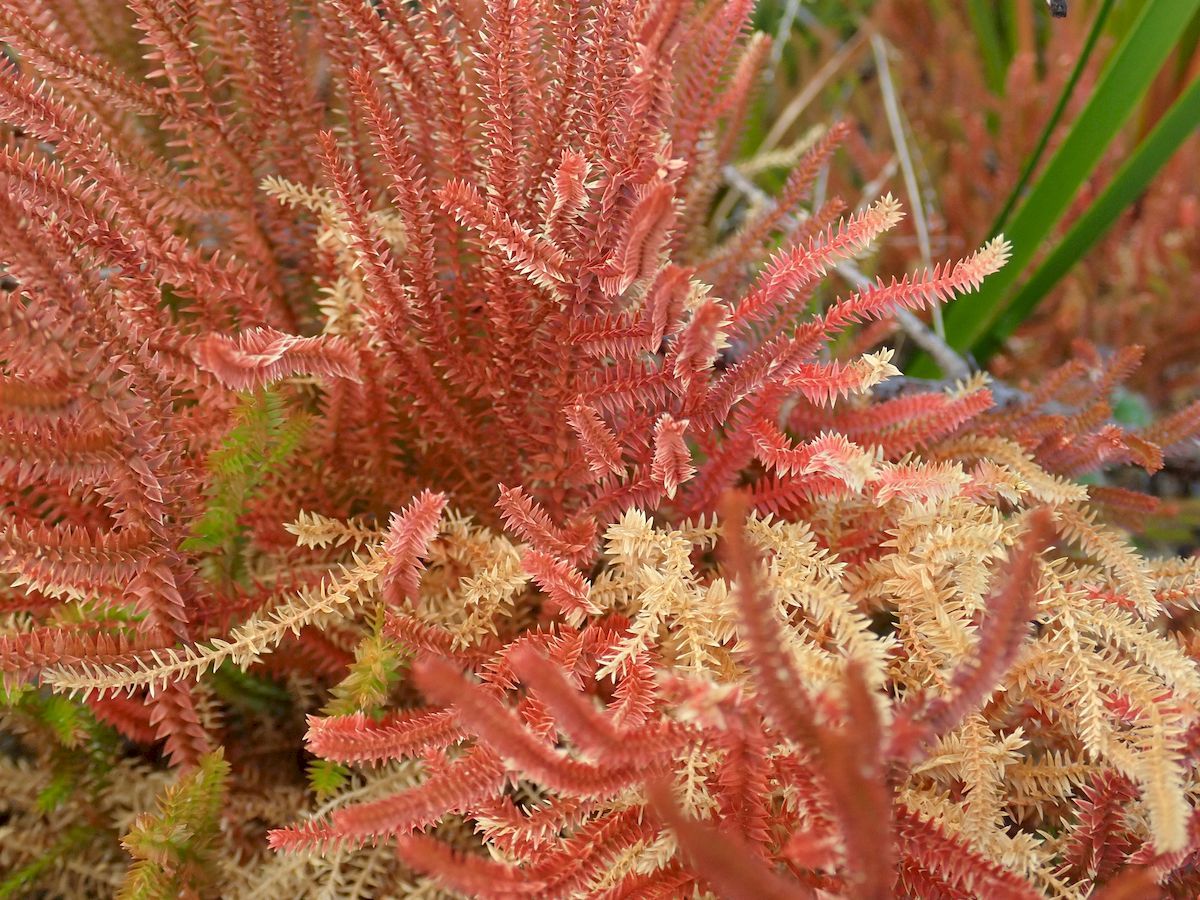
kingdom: Plantae
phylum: Tracheophyta
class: Lycopodiopsida
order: Selaginellales
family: Selaginellaceae
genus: Selaginella
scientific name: Selaginella uliginosa
